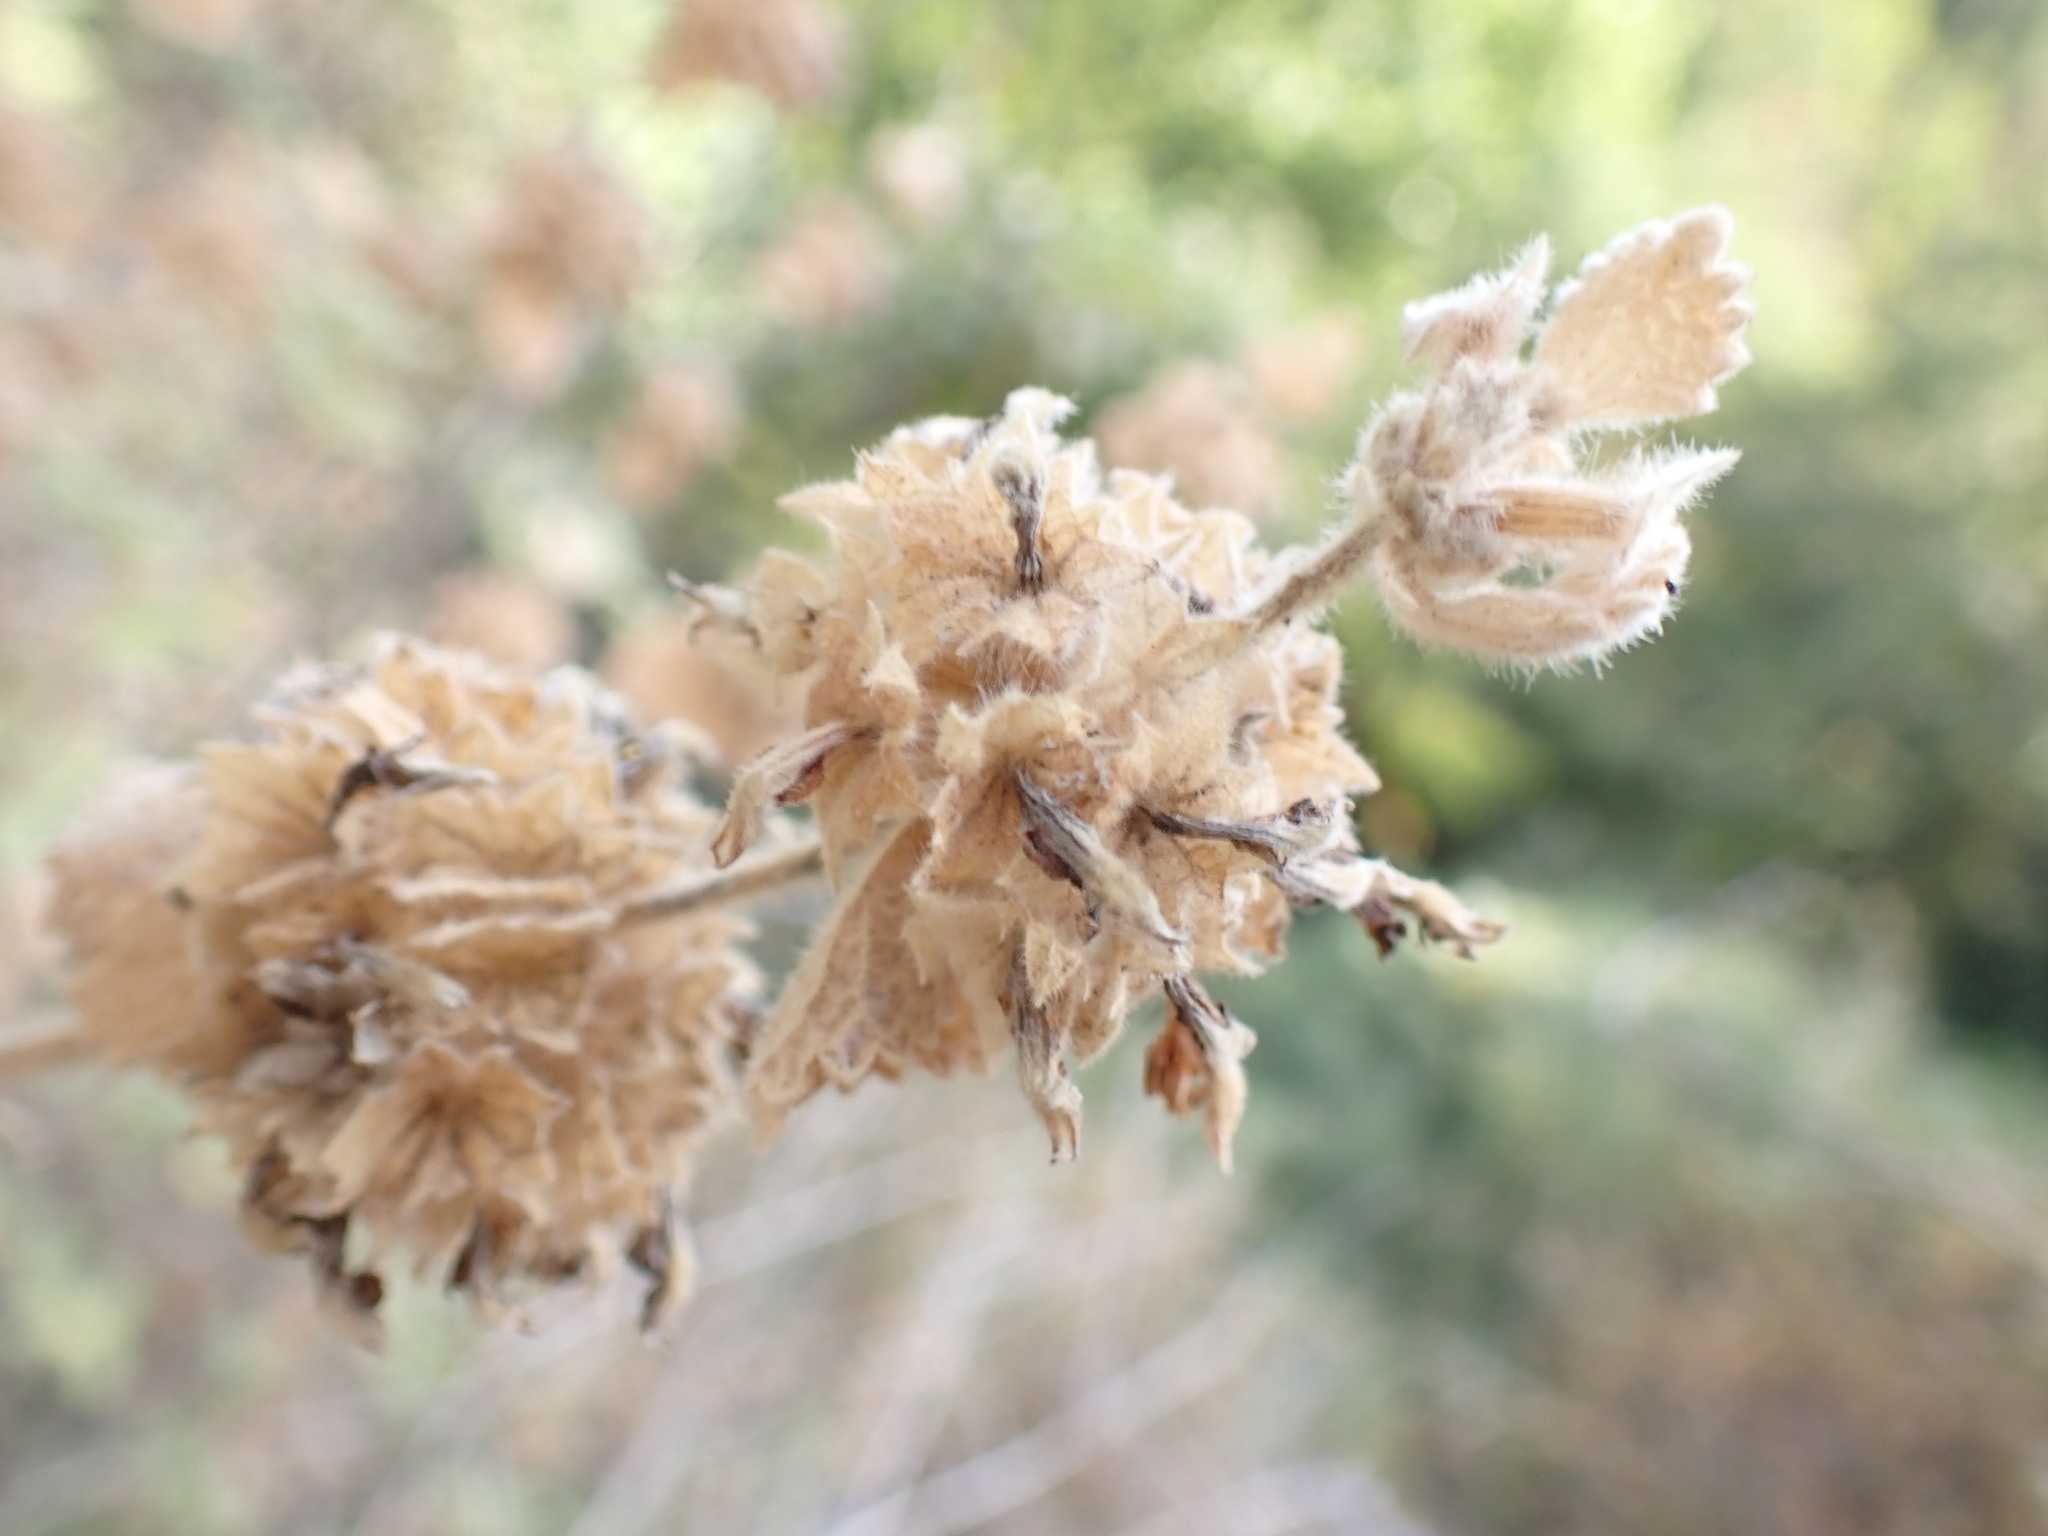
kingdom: Plantae
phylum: Tracheophyta
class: Magnoliopsida
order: Lamiales
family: Lamiaceae
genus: Pseudodictamnus
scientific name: Pseudodictamnus hirsutus
